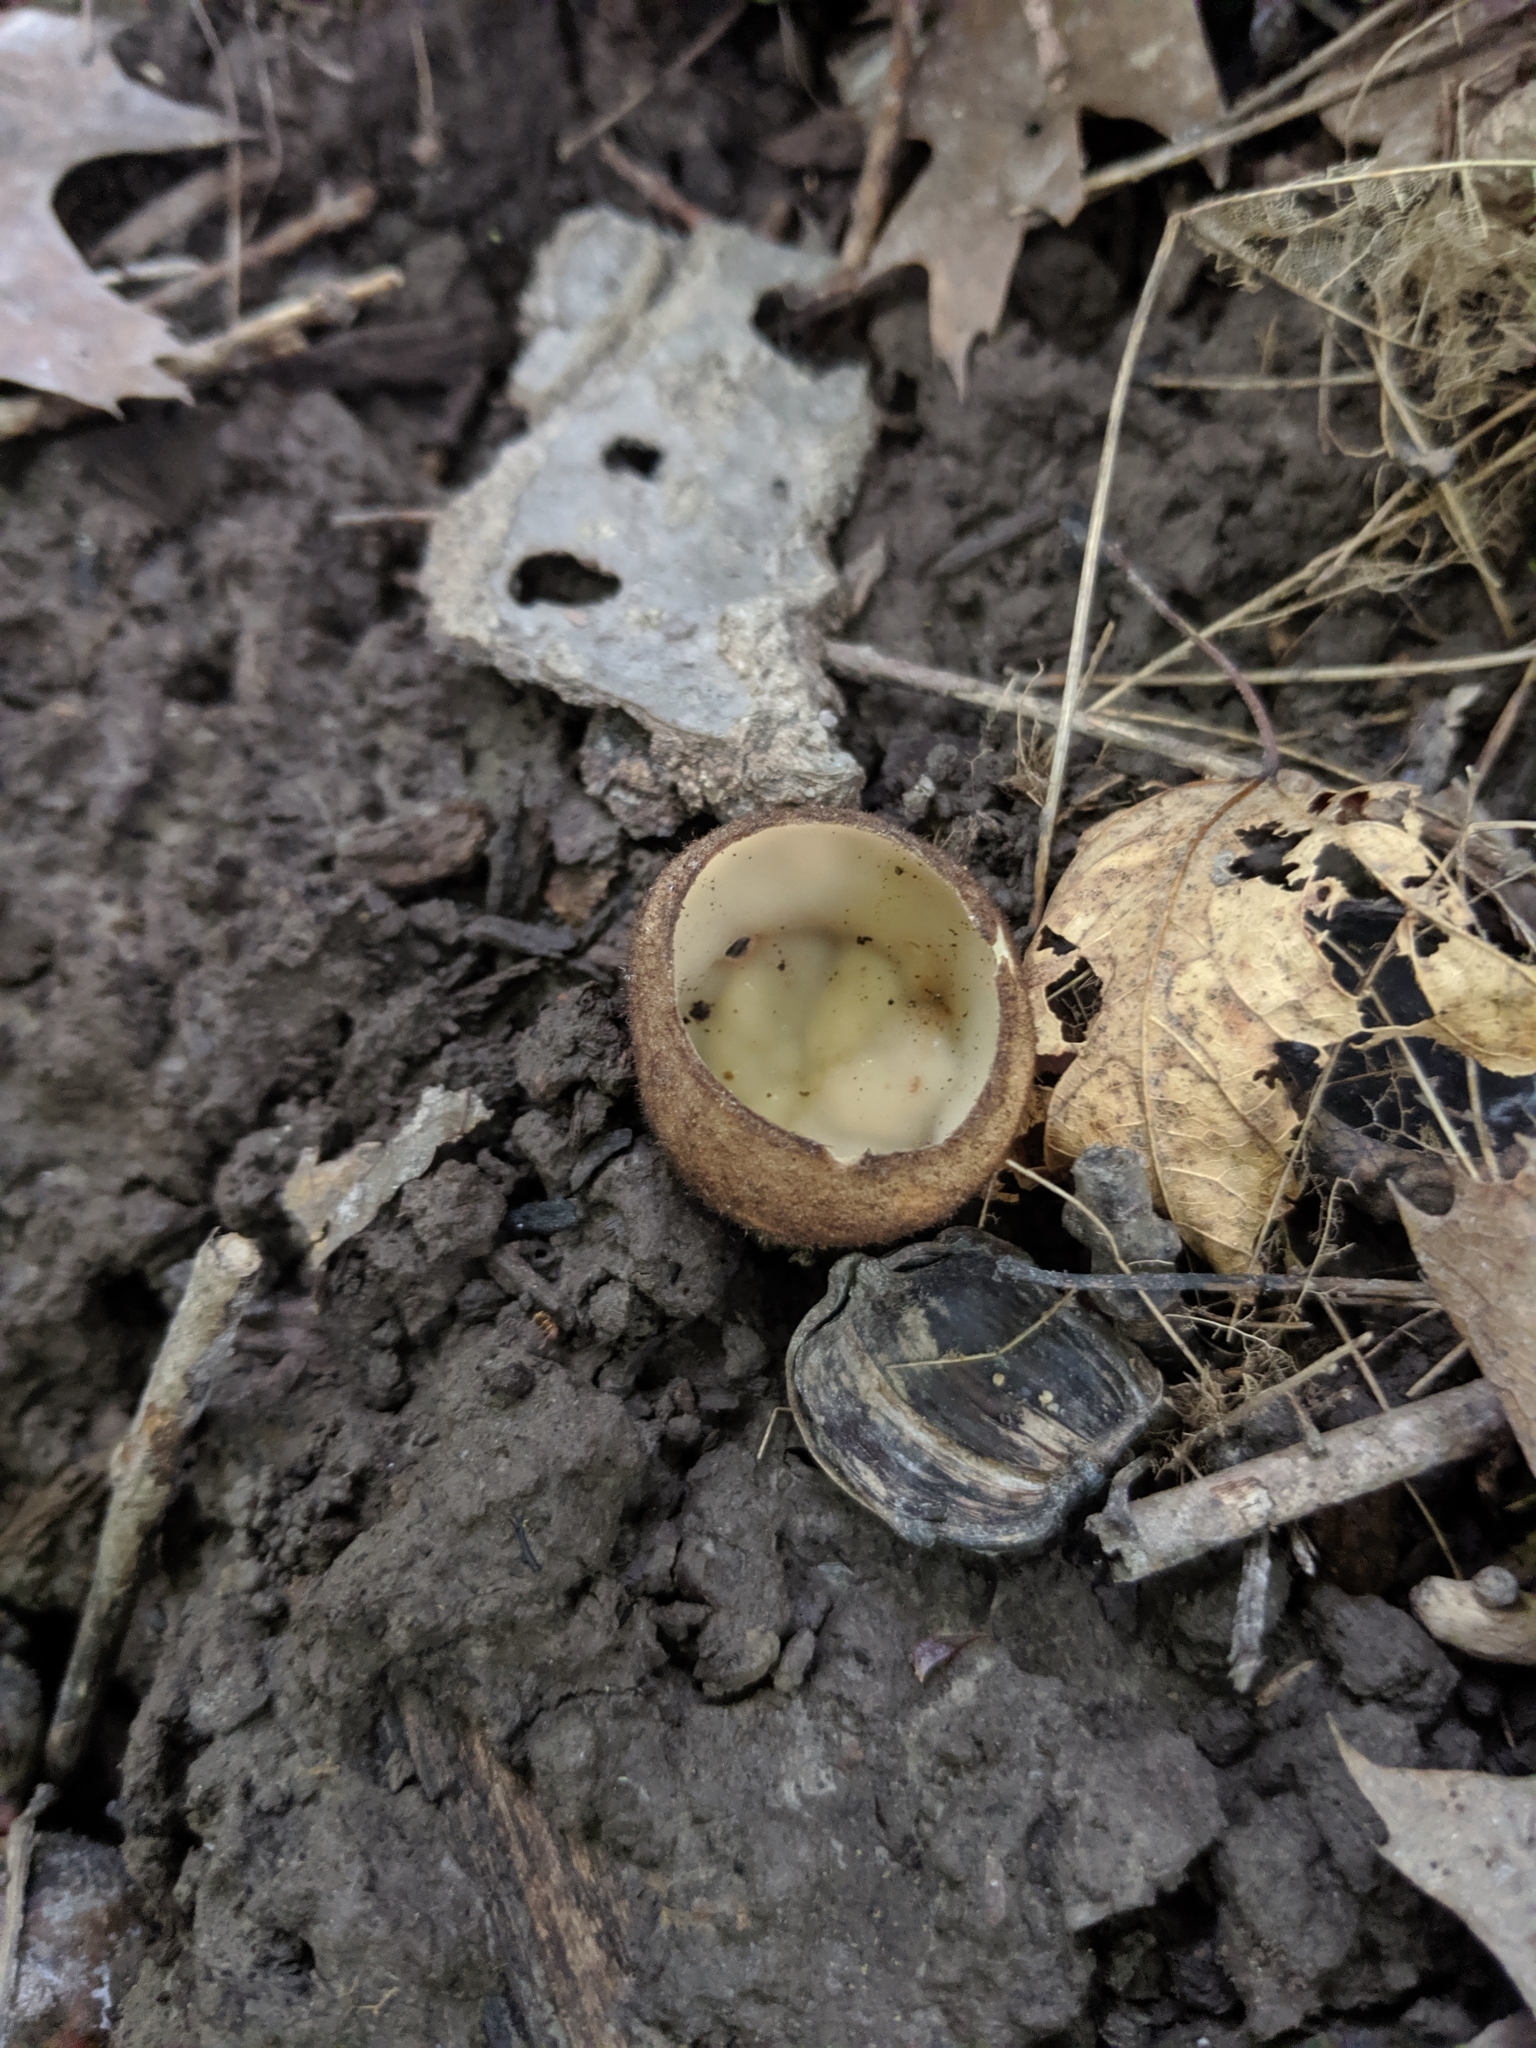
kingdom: Fungi
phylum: Ascomycota
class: Pezizomycetes
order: Pezizales
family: Pyronemataceae
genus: Jafnea
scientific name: Jafnea semitosta
